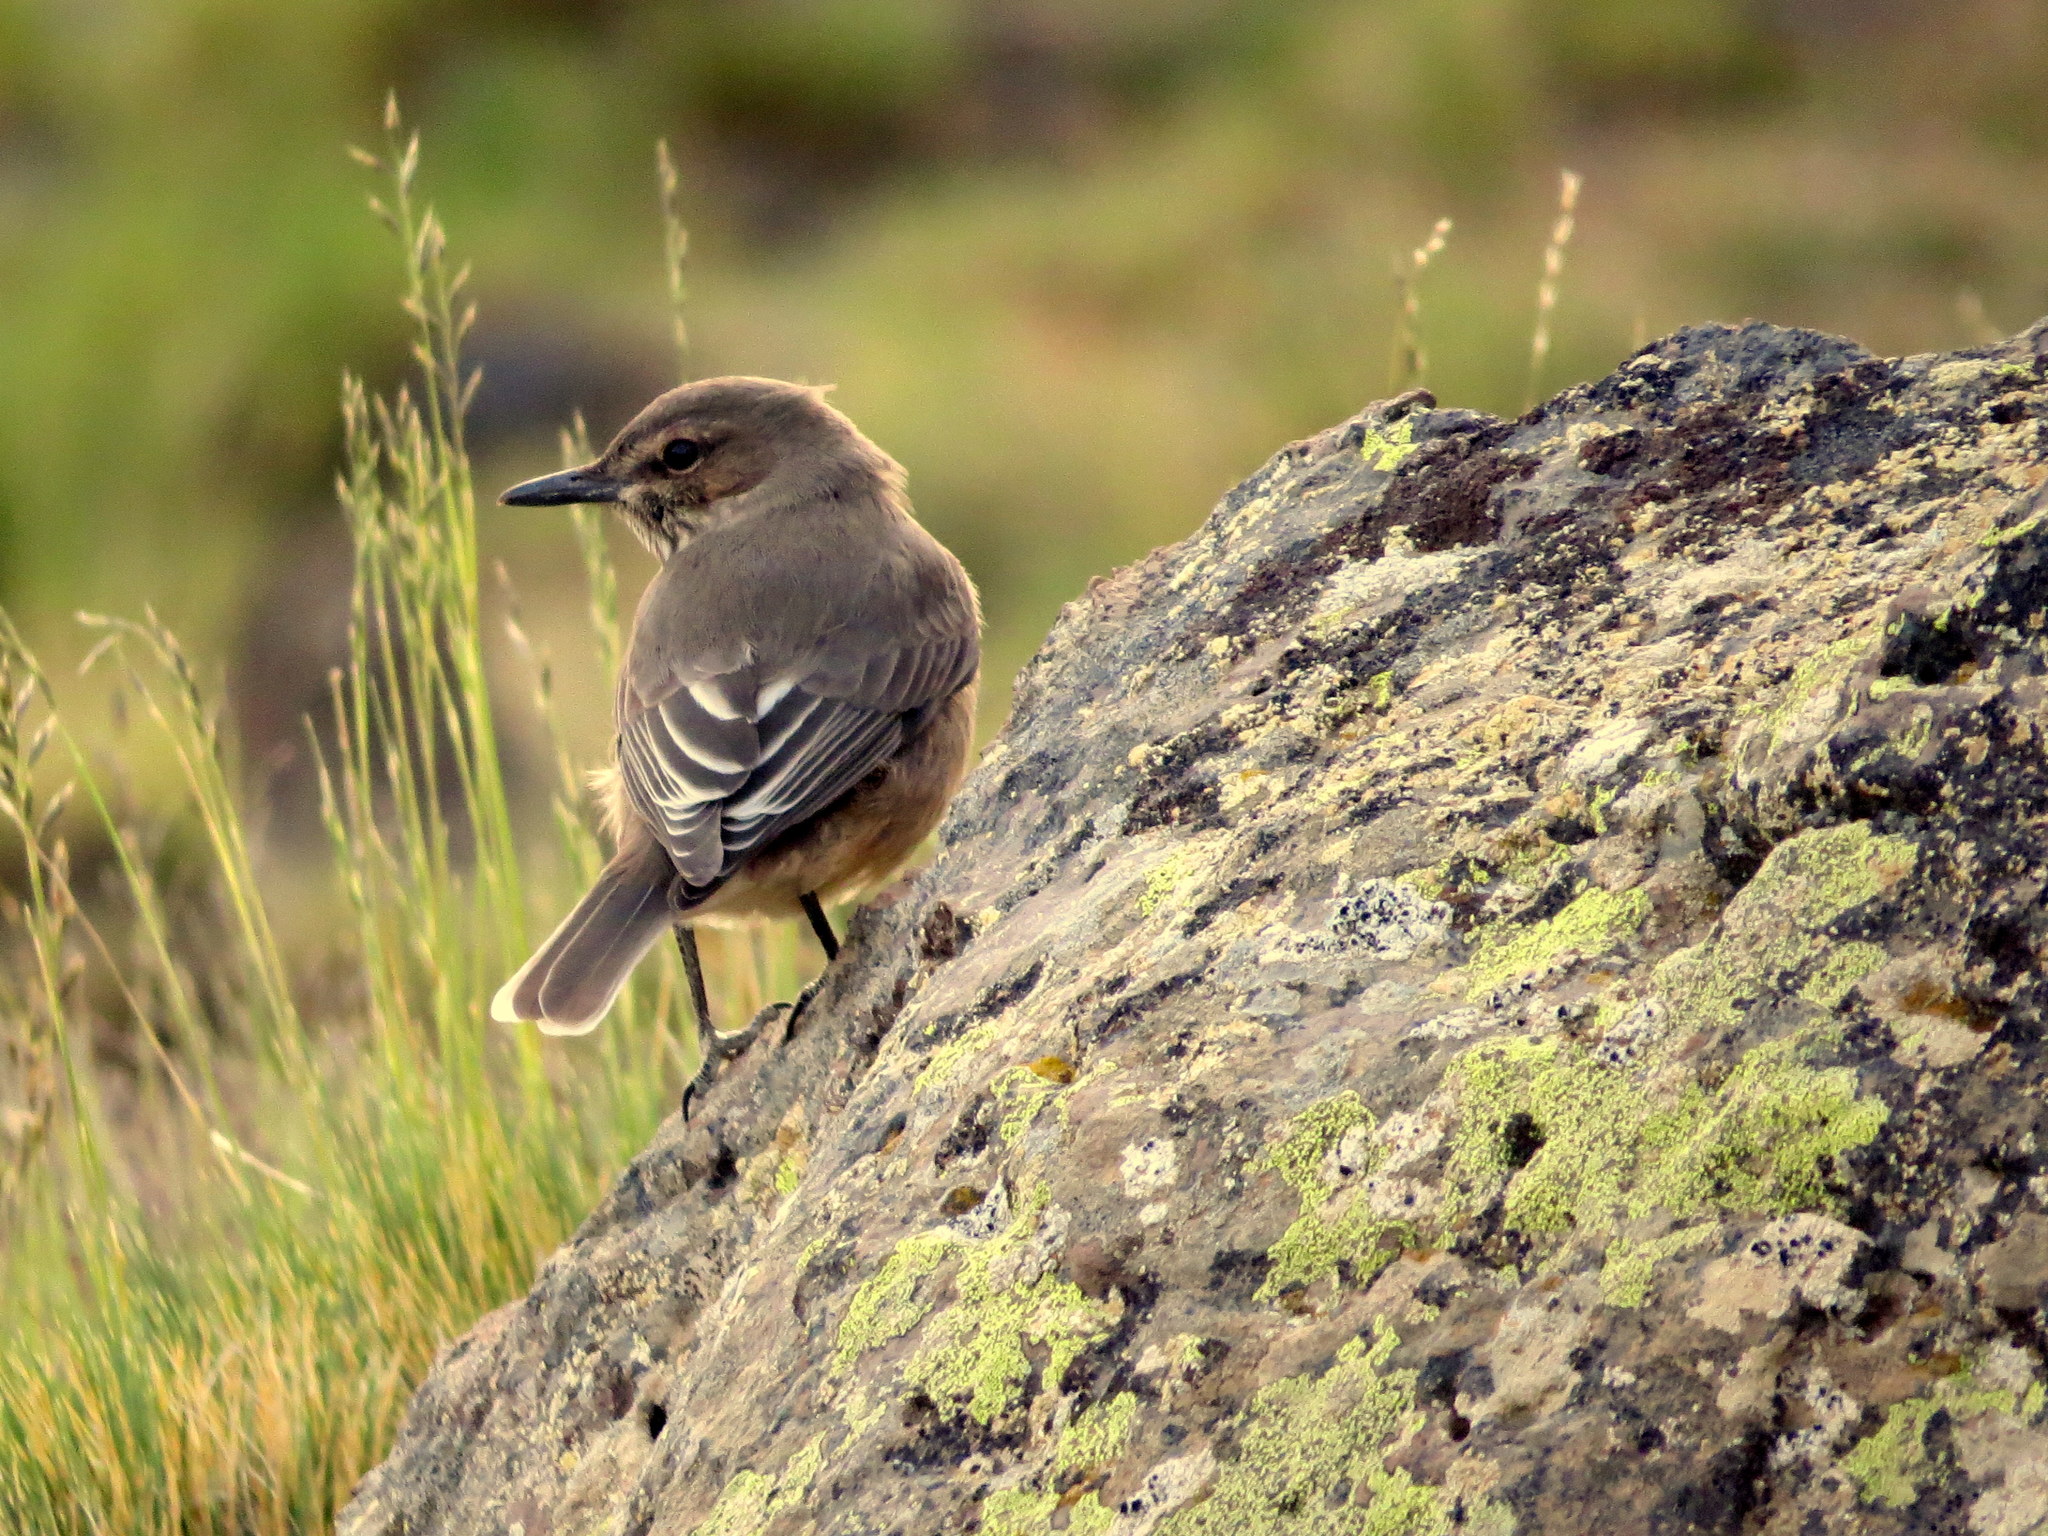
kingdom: Animalia
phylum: Chordata
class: Aves
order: Passeriformes
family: Tyrannidae
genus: Agriornis
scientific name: Agriornis montanus
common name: Black-billed shrike-tyrant
